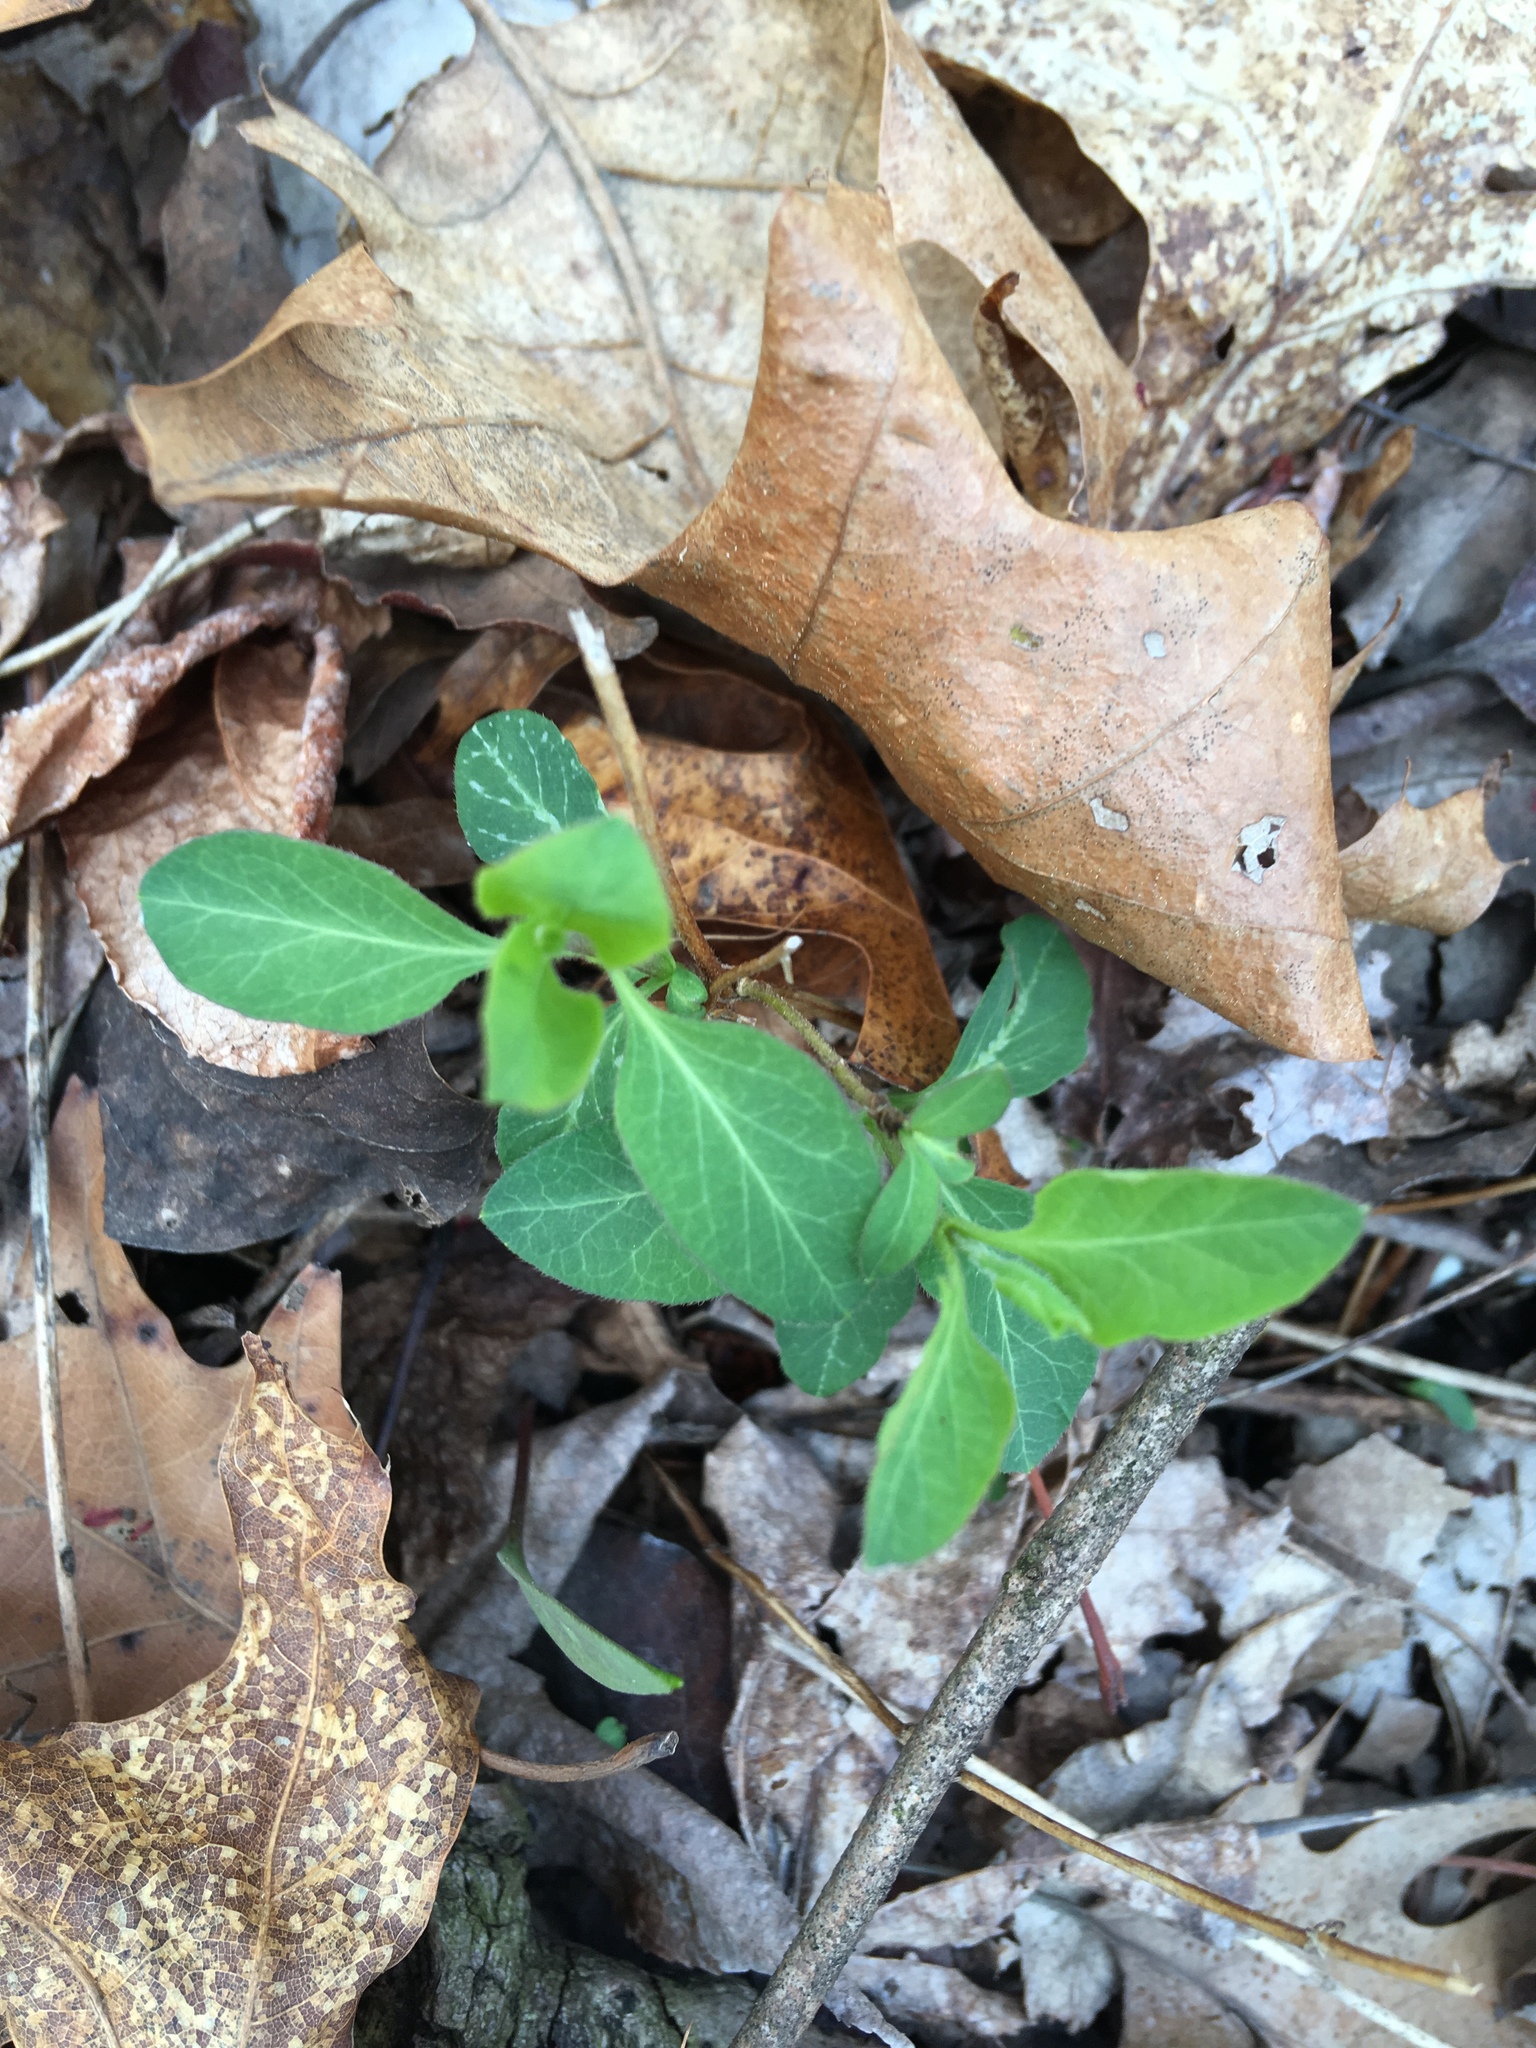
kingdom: Plantae
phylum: Tracheophyta
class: Magnoliopsida
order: Dipsacales
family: Caprifoliaceae
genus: Lonicera
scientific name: Lonicera japonica
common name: Japanese honeysuckle
